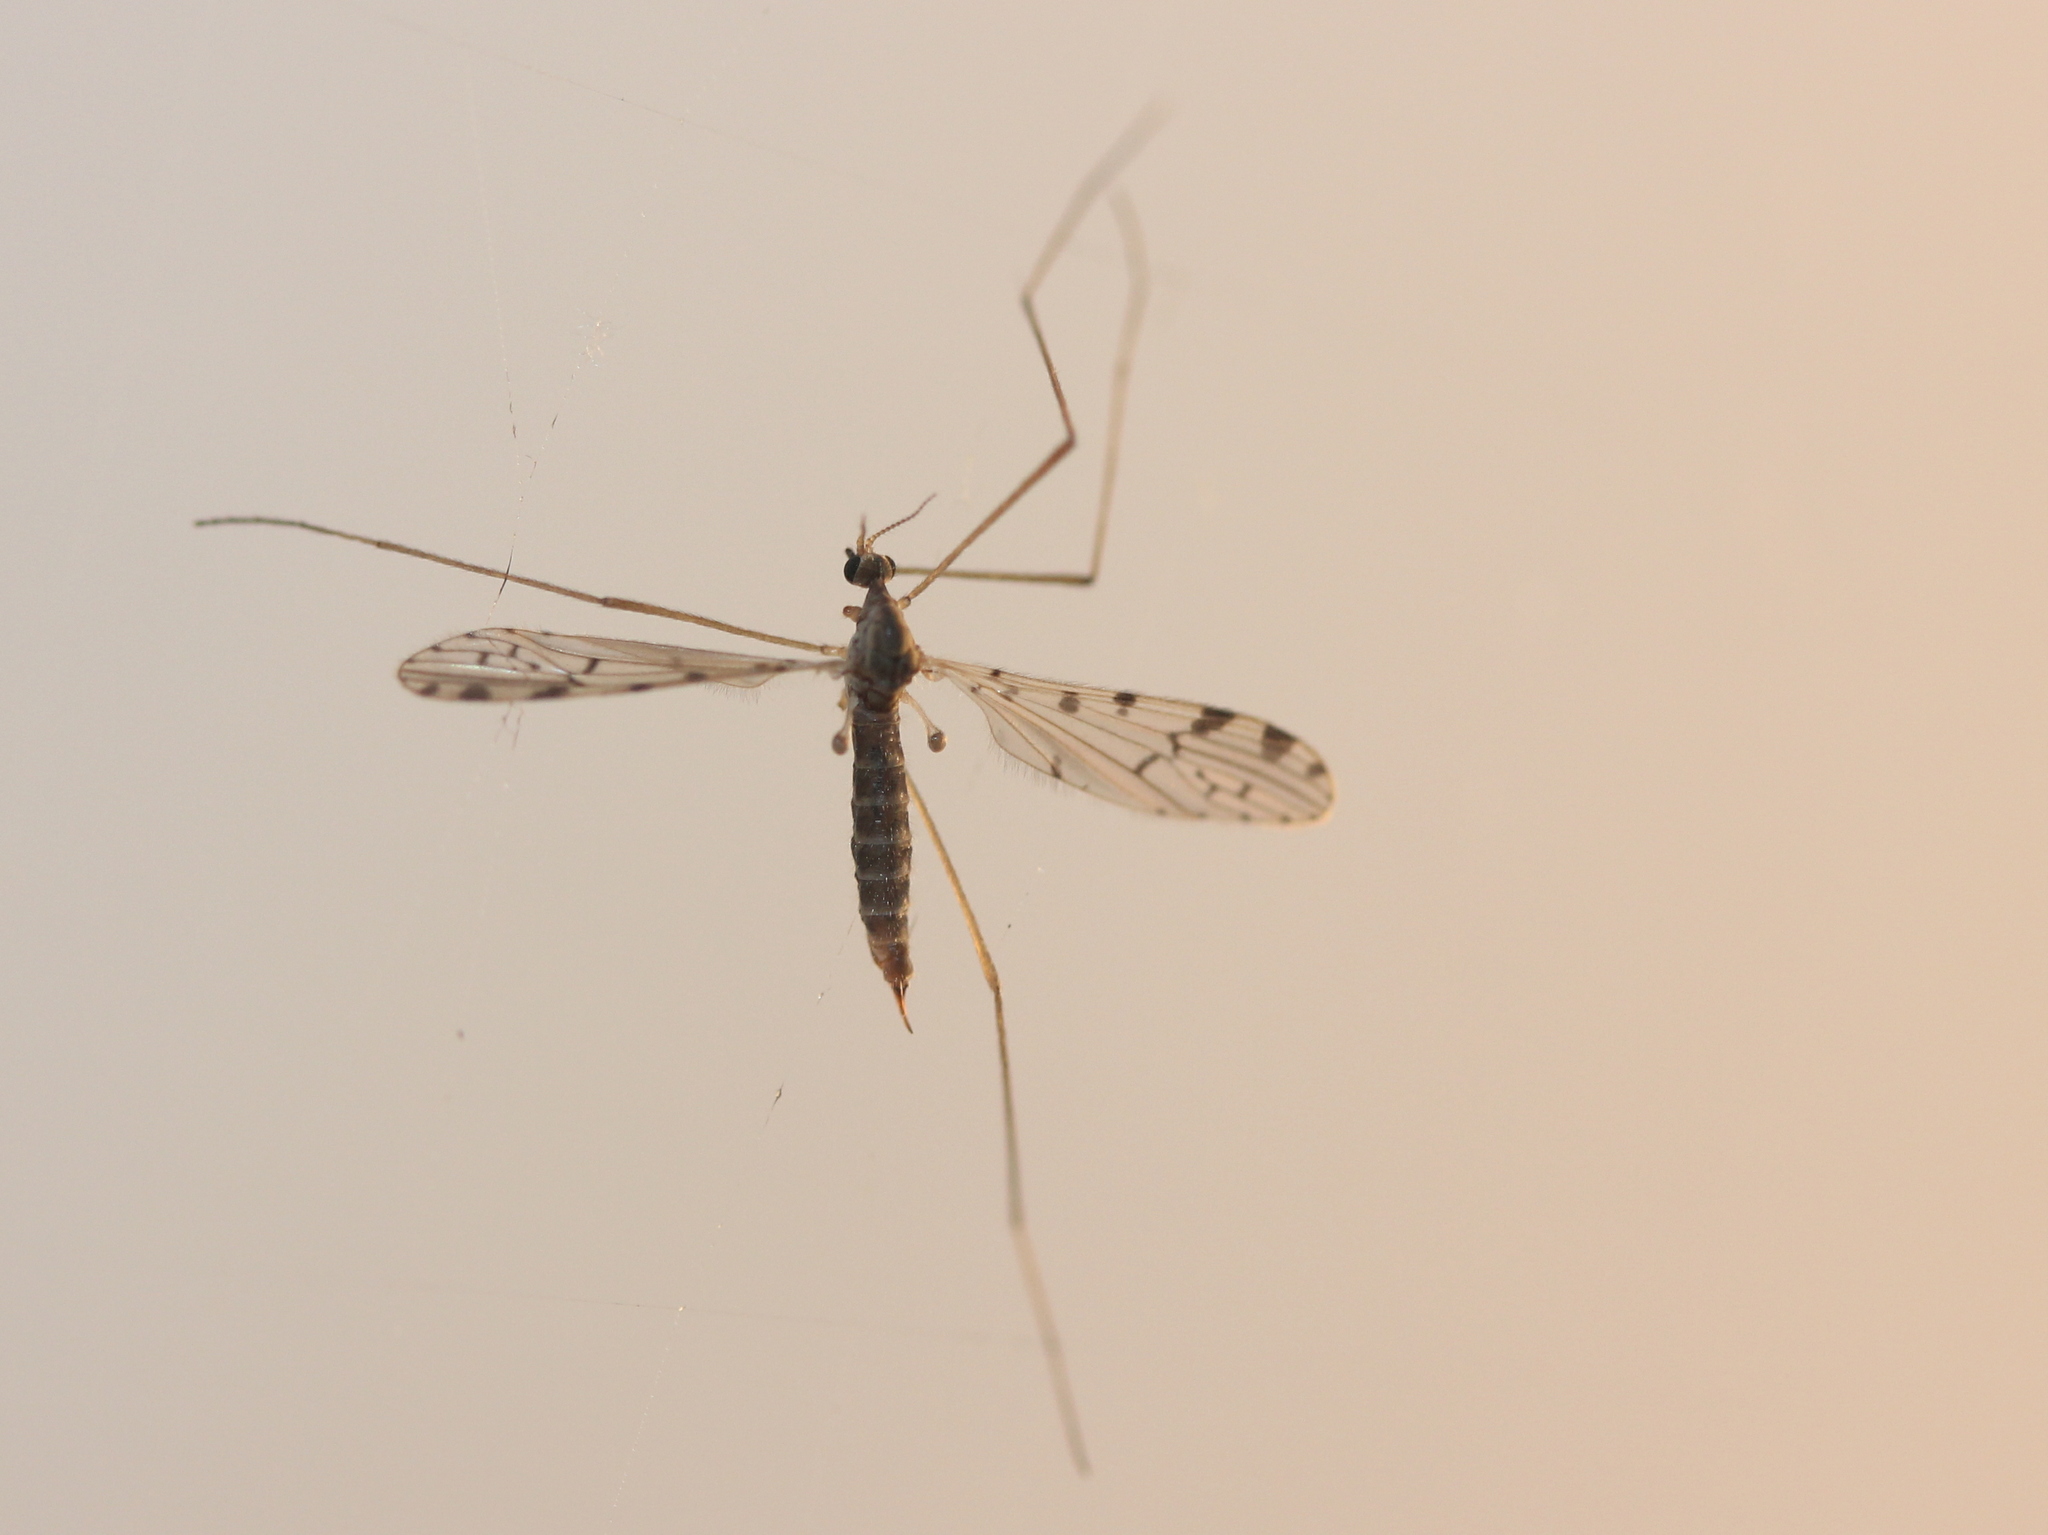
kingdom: Animalia
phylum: Arthropoda
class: Insecta
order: Diptera
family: Limoniidae
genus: Hoplolabis
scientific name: Hoplolabis armata
